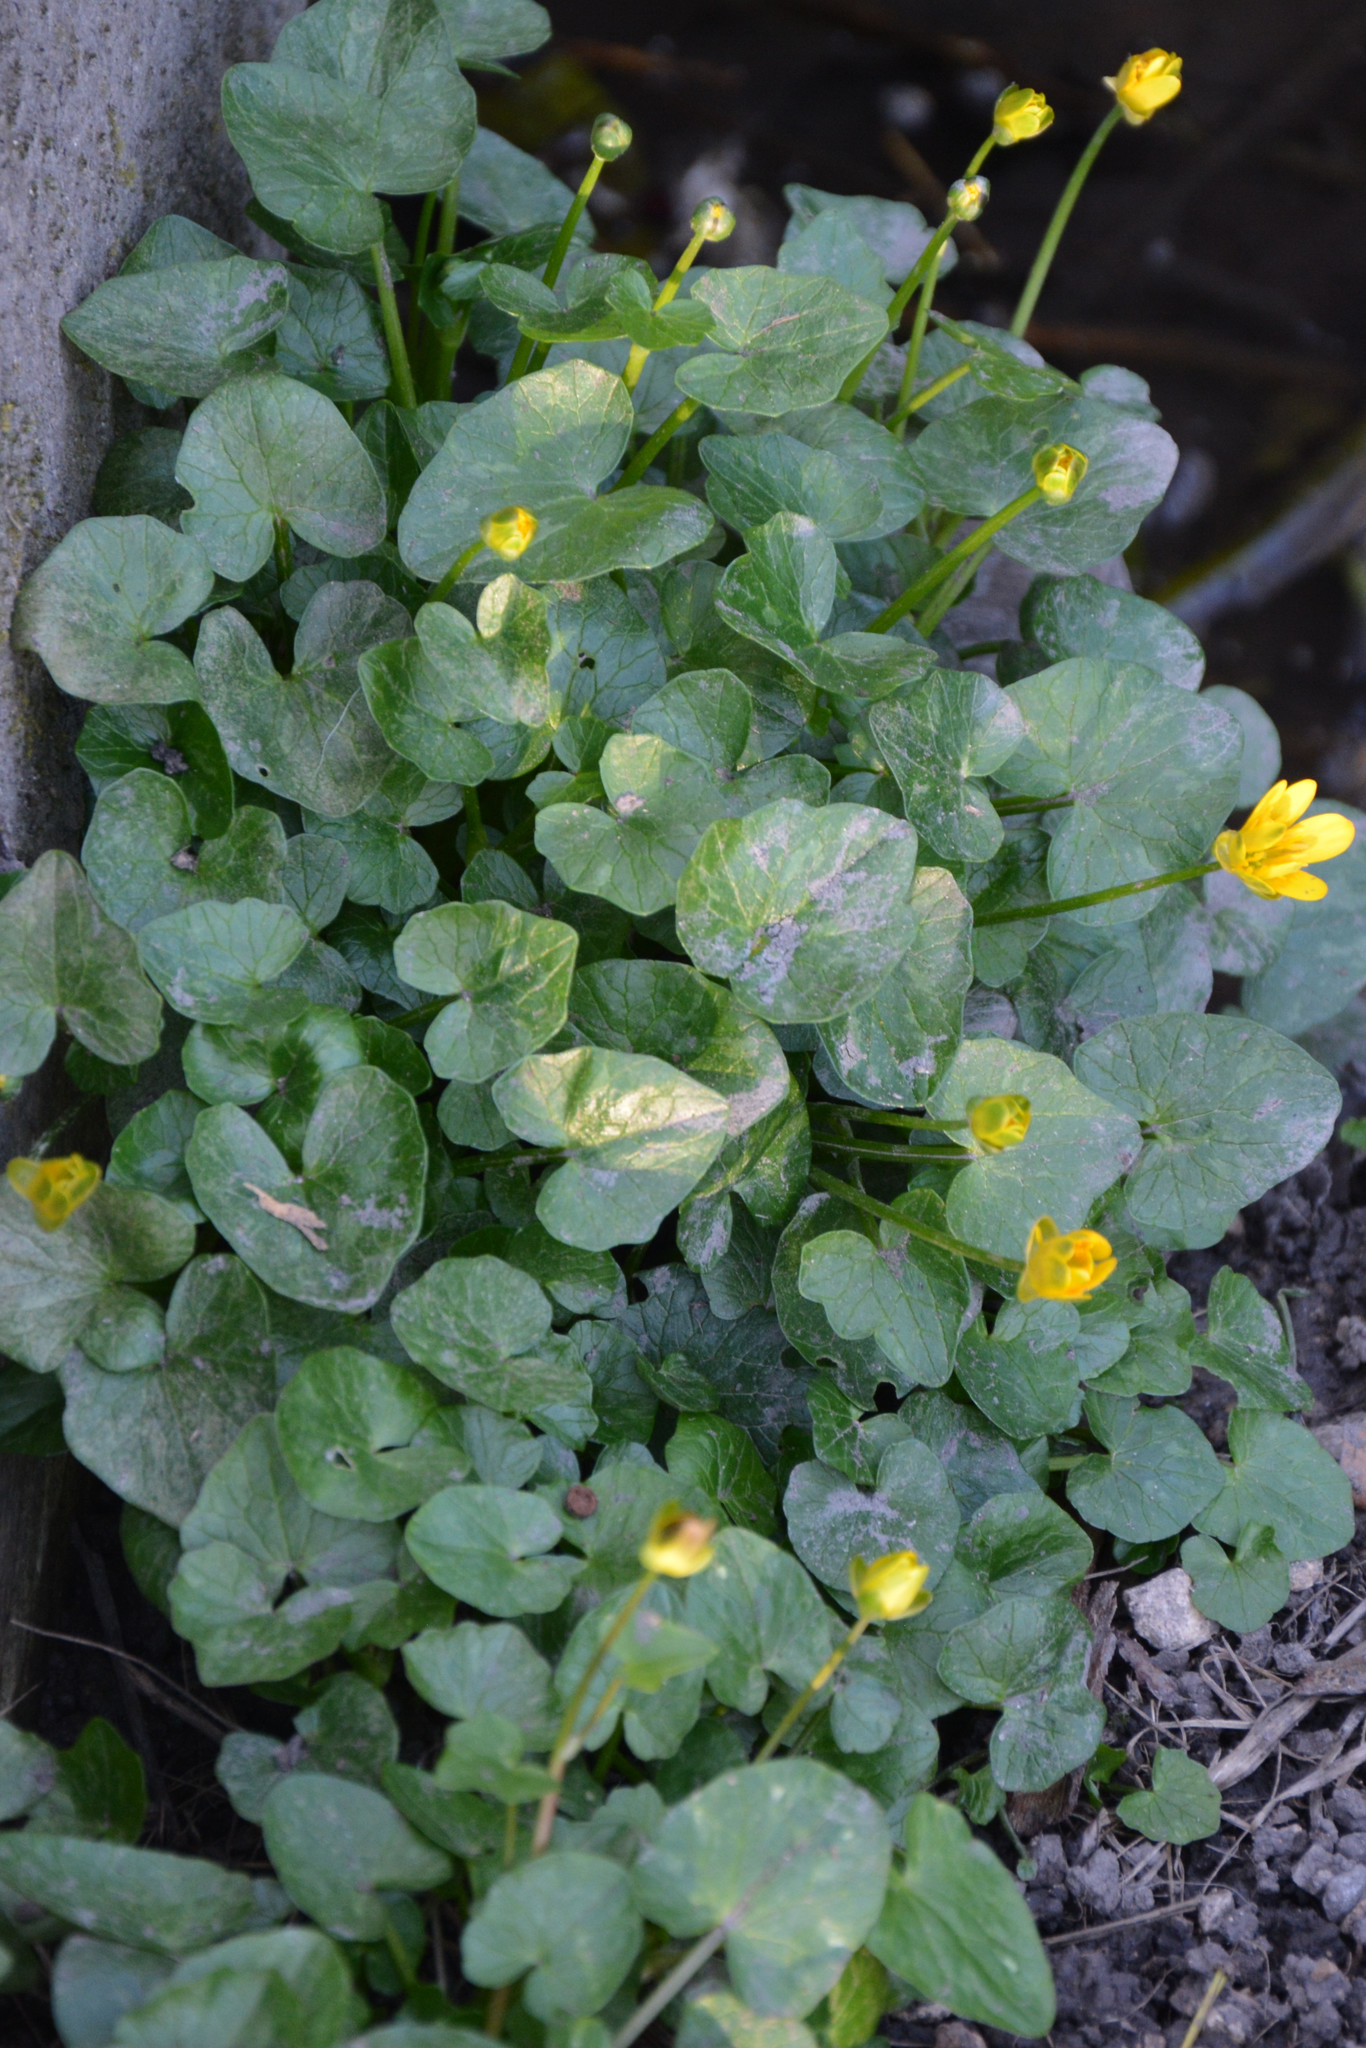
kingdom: Plantae
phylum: Tracheophyta
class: Magnoliopsida
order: Ranunculales
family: Ranunculaceae
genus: Ficaria
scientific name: Ficaria verna
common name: Lesser celandine
